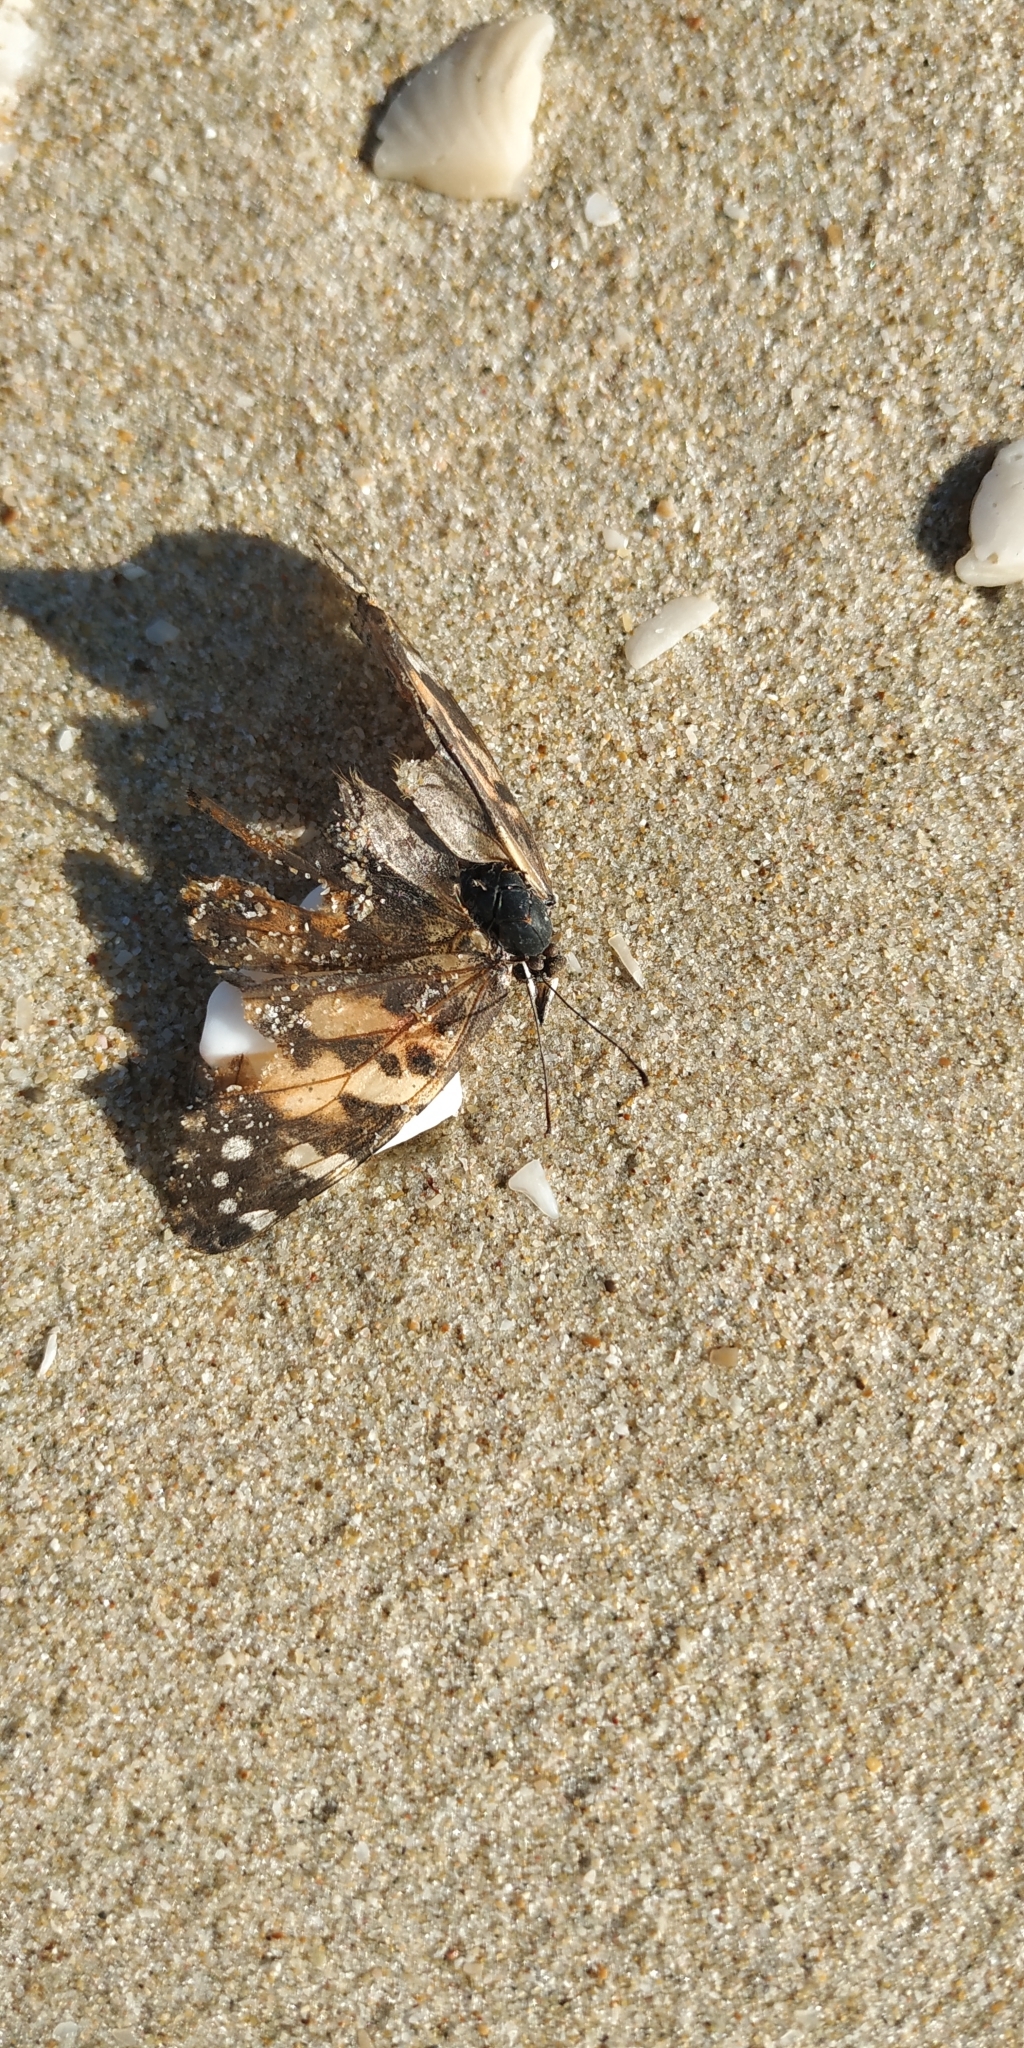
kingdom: Animalia
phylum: Arthropoda
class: Insecta
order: Lepidoptera
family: Nymphalidae
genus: Vanessa
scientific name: Vanessa cardui
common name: Painted lady
